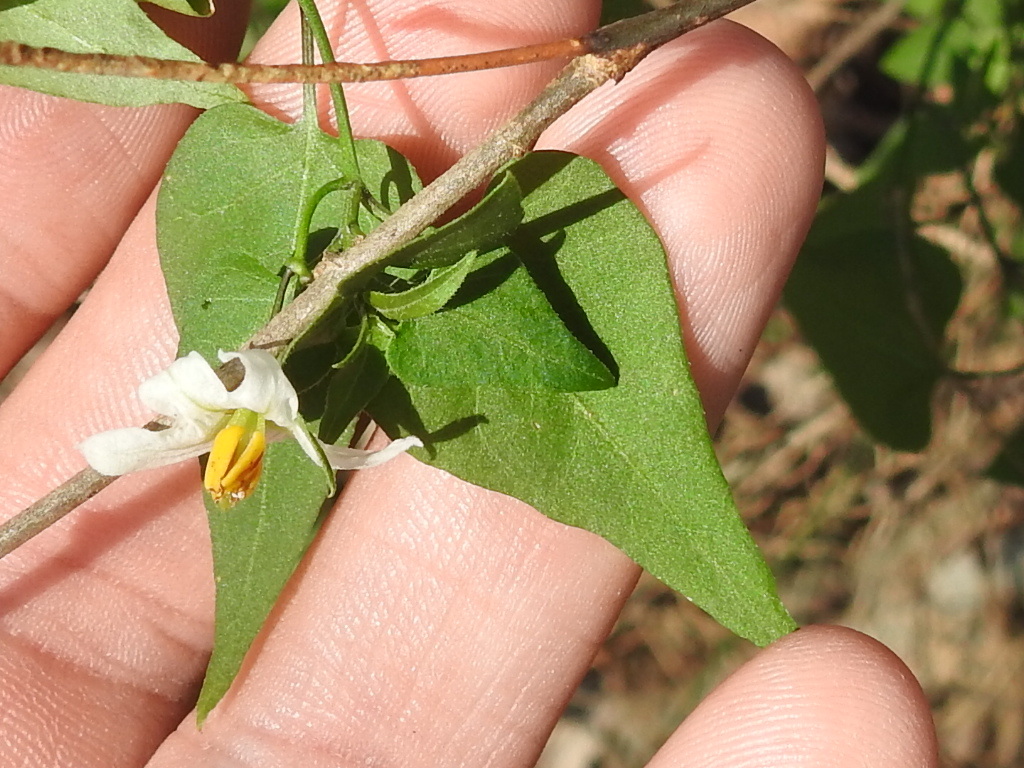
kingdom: Plantae
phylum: Tracheophyta
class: Magnoliopsida
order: Solanales
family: Solanaceae
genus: Solanum
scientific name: Solanum triquetrum
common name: Texas nightshade
